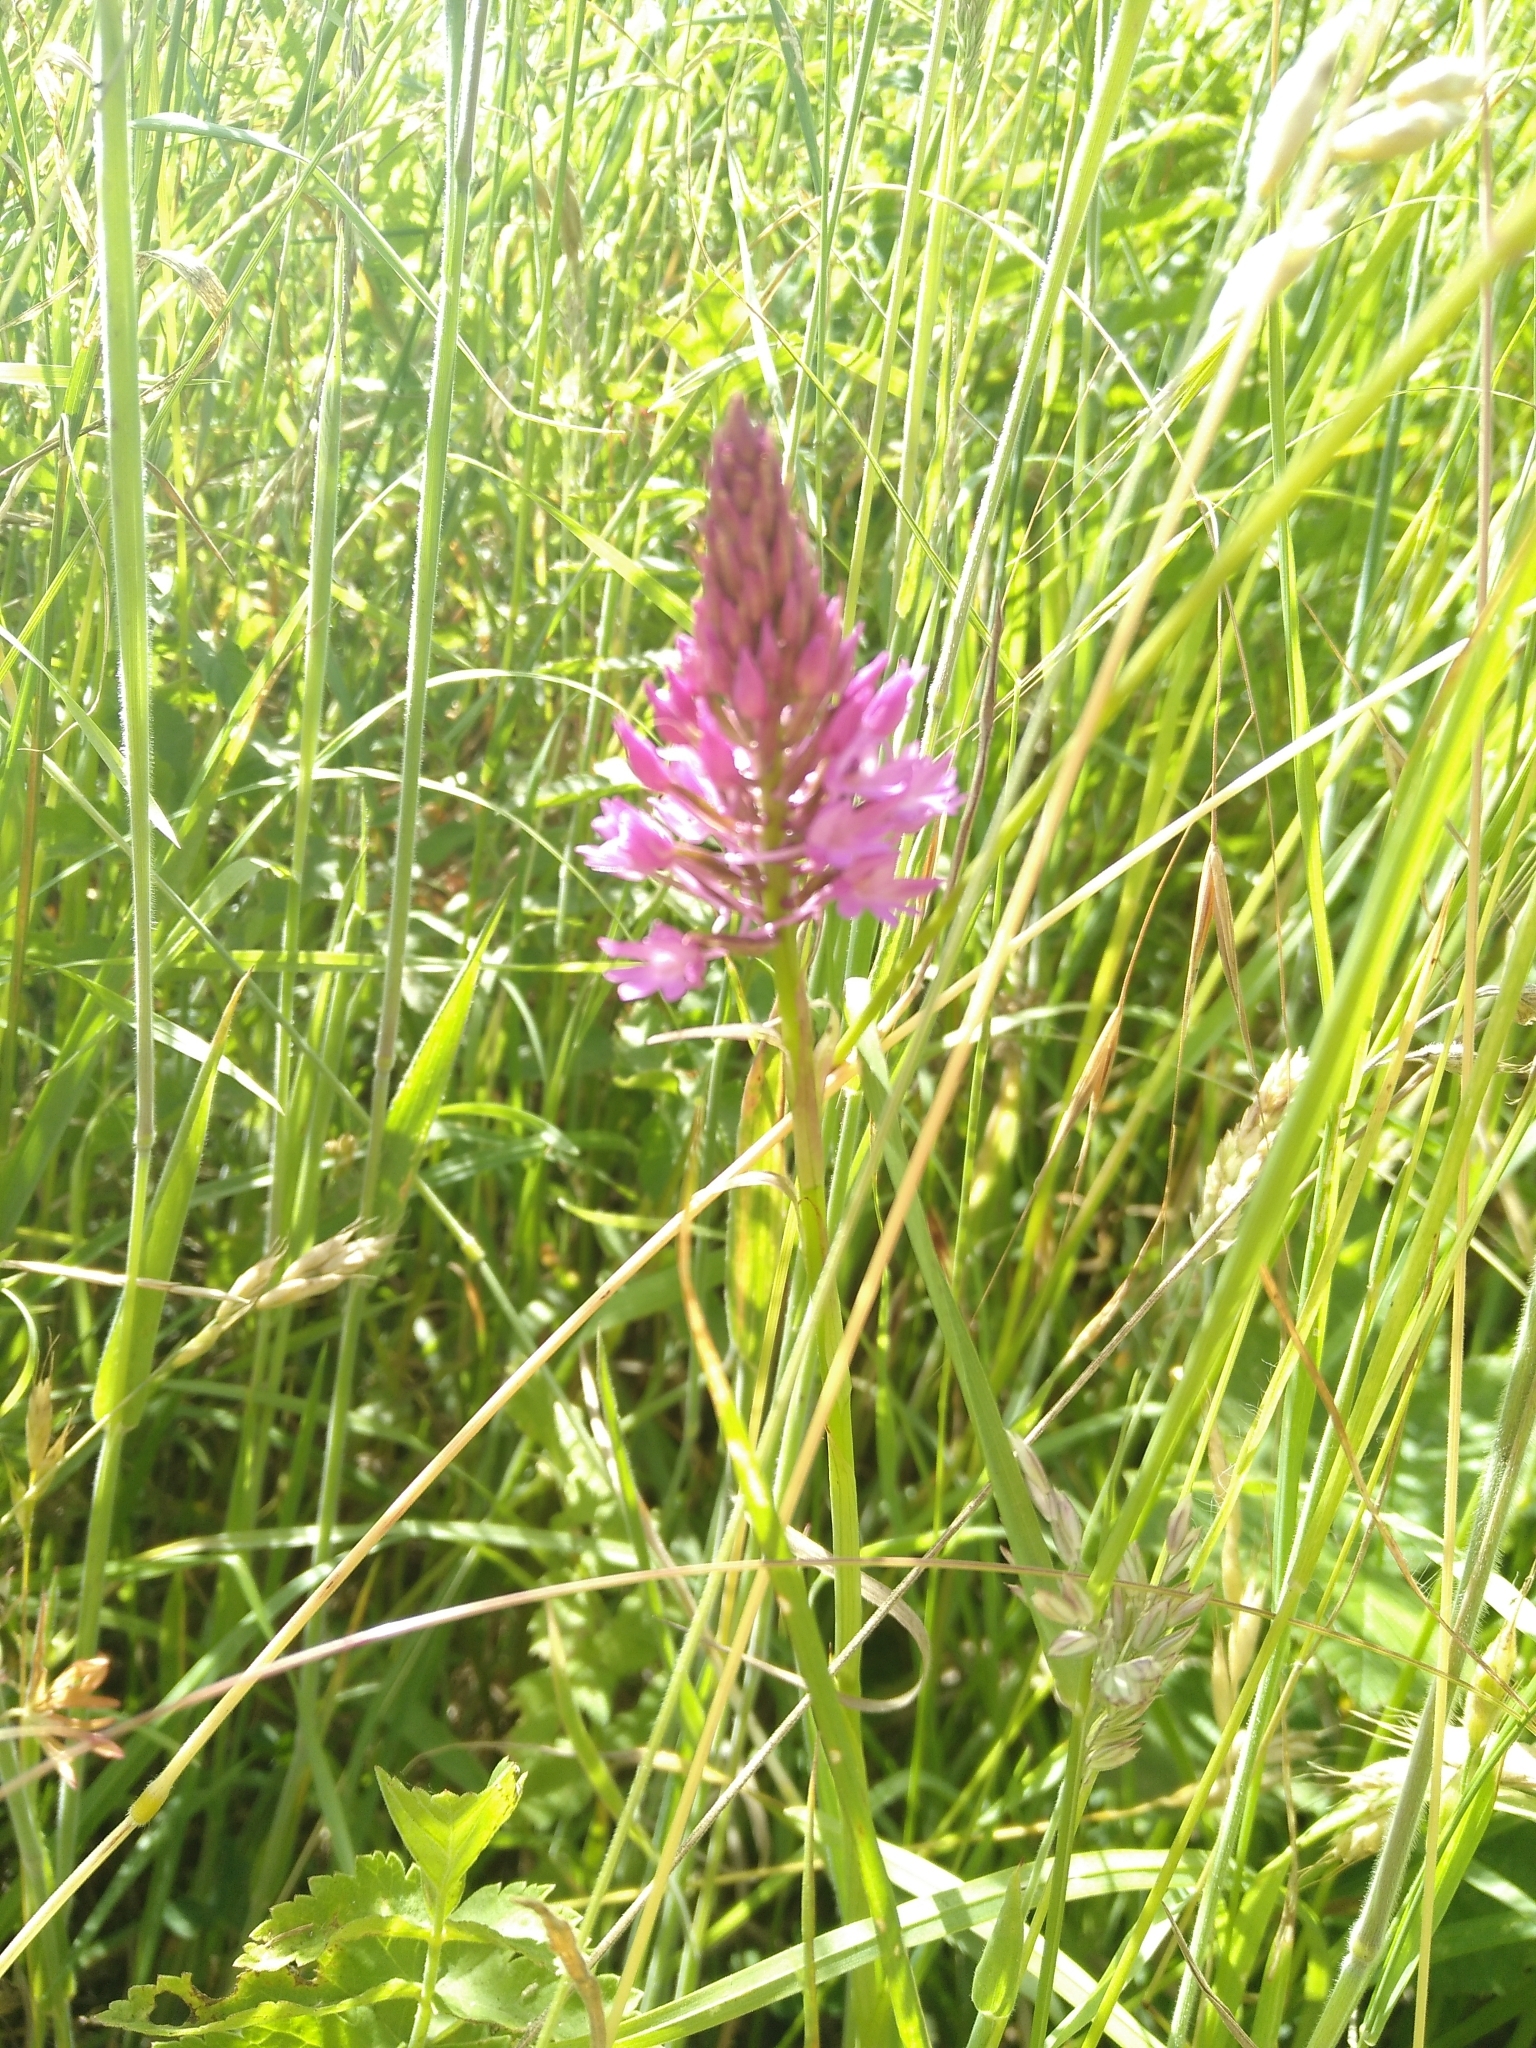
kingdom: Plantae
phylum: Tracheophyta
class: Liliopsida
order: Asparagales
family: Orchidaceae
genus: Anacamptis
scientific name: Anacamptis pyramidalis
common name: Pyramidal orchid
